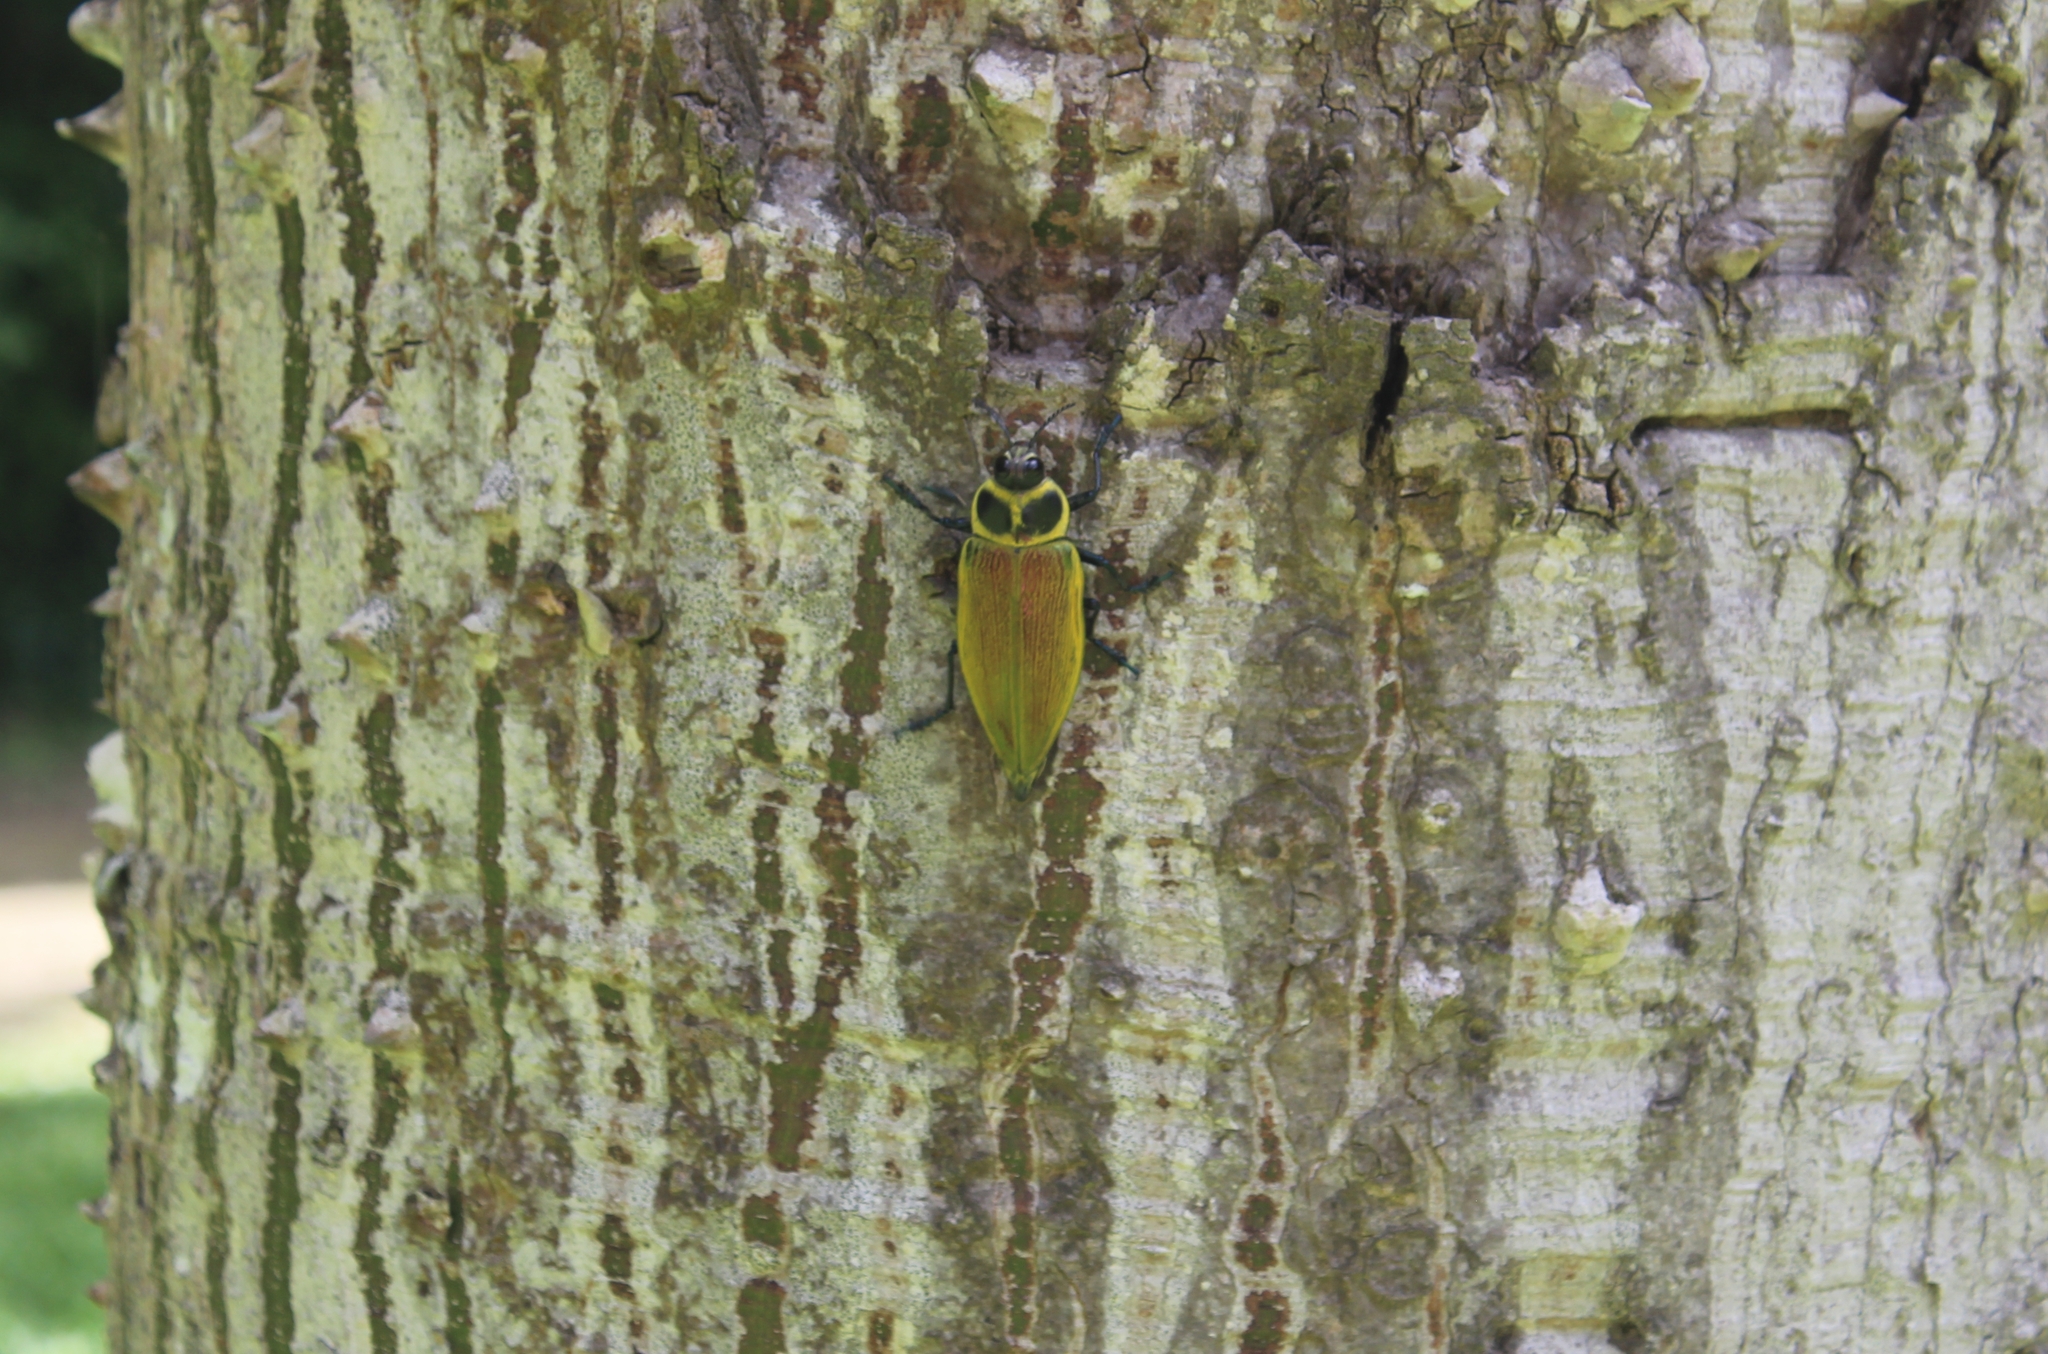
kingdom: Animalia
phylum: Arthropoda
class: Insecta
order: Coleoptera
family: Buprestidae
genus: Euchroma
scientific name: Euchroma giganteum
